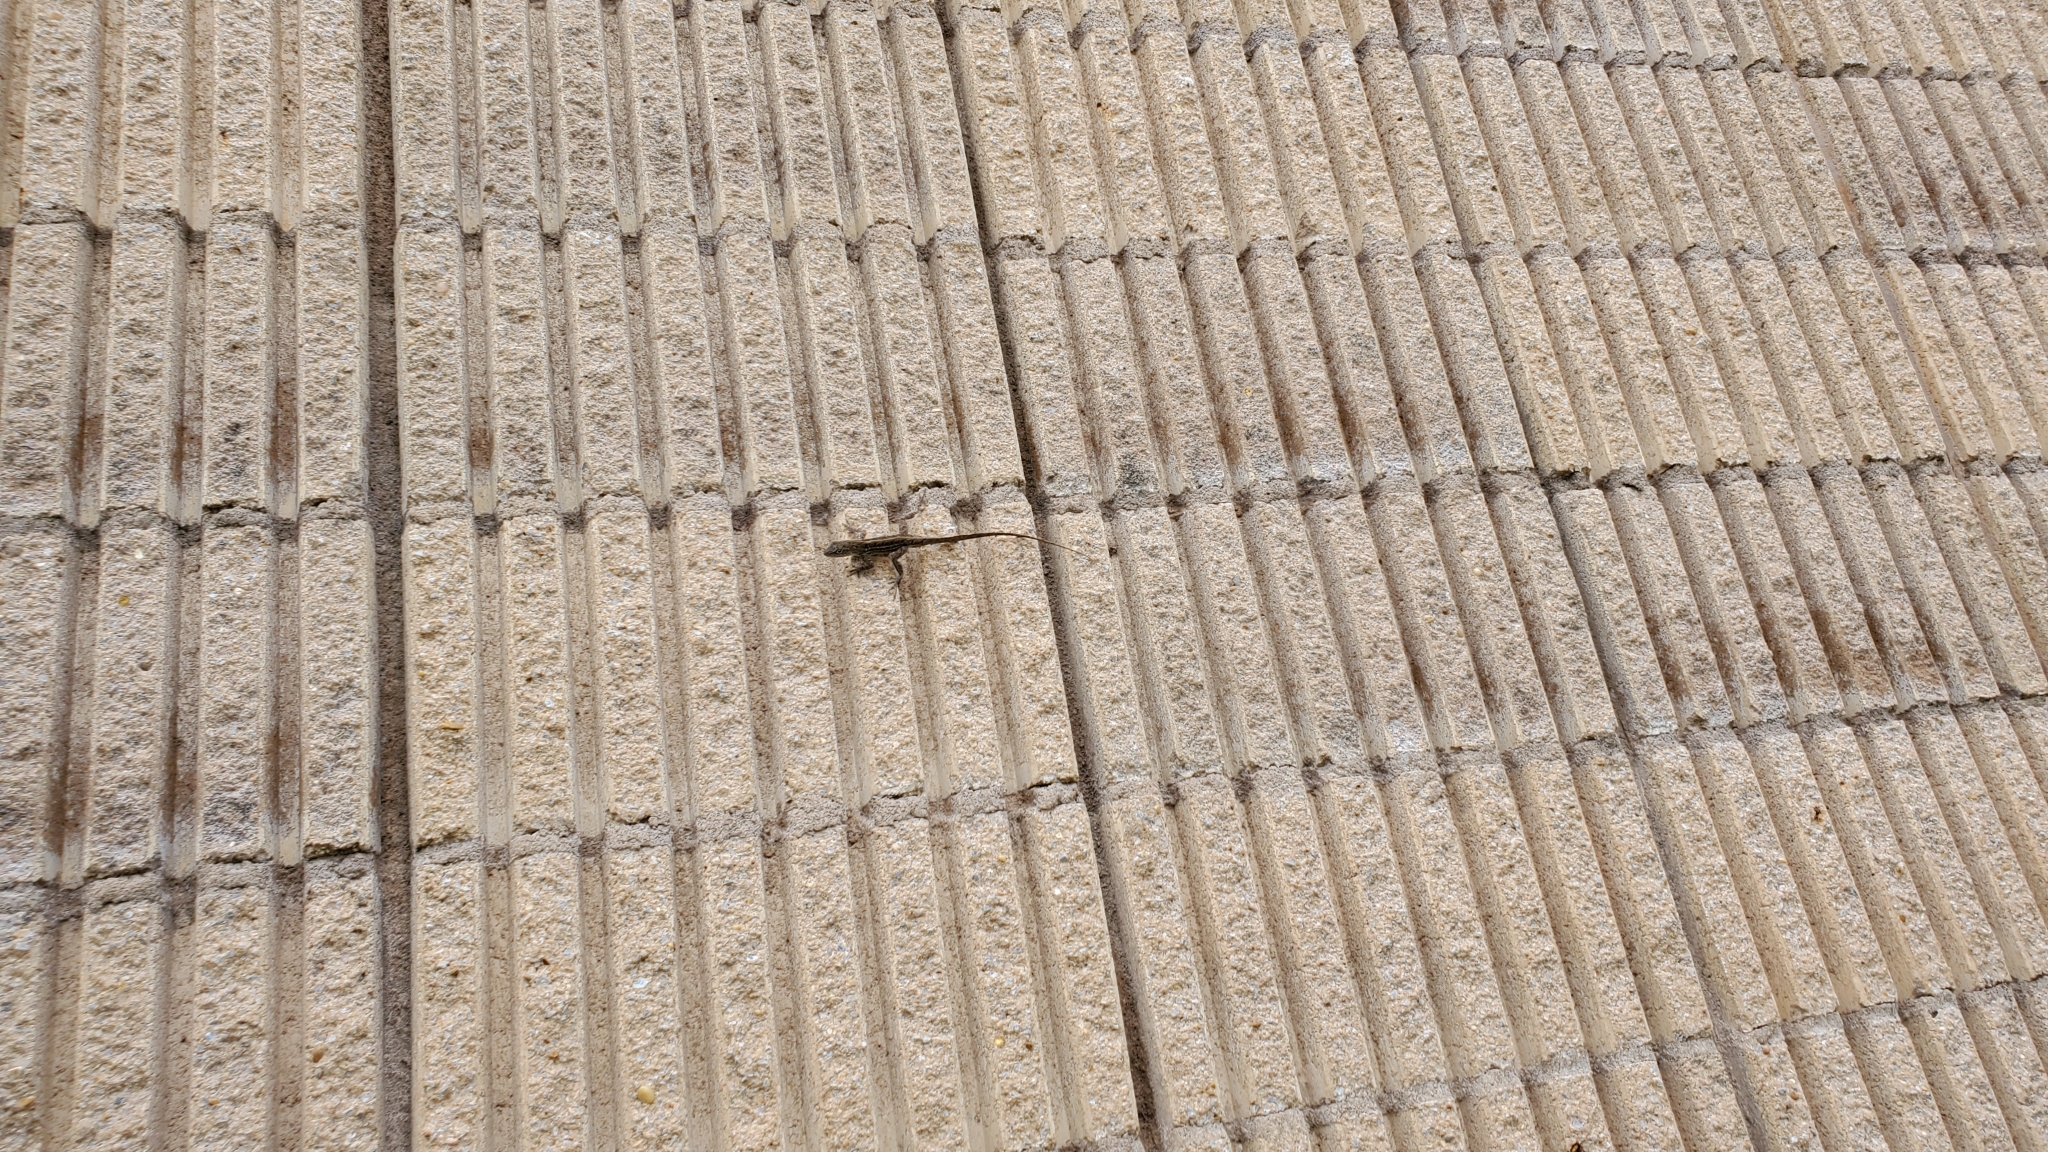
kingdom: Animalia
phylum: Chordata
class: Squamata
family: Dactyloidae
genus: Anolis
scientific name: Anolis sagrei
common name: Brown anole
